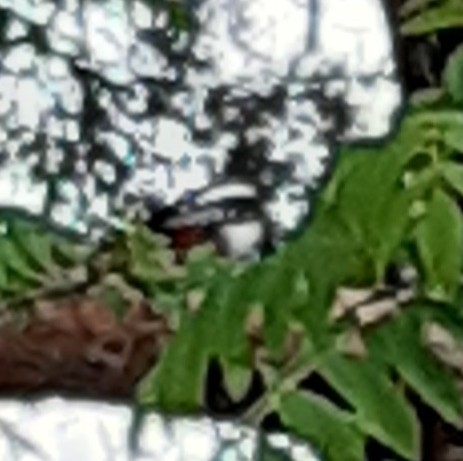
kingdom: Animalia
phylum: Chordata
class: Aves
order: Piciformes
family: Picidae
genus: Dendrocopos
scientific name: Dendrocopos major
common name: Great spotted woodpecker
